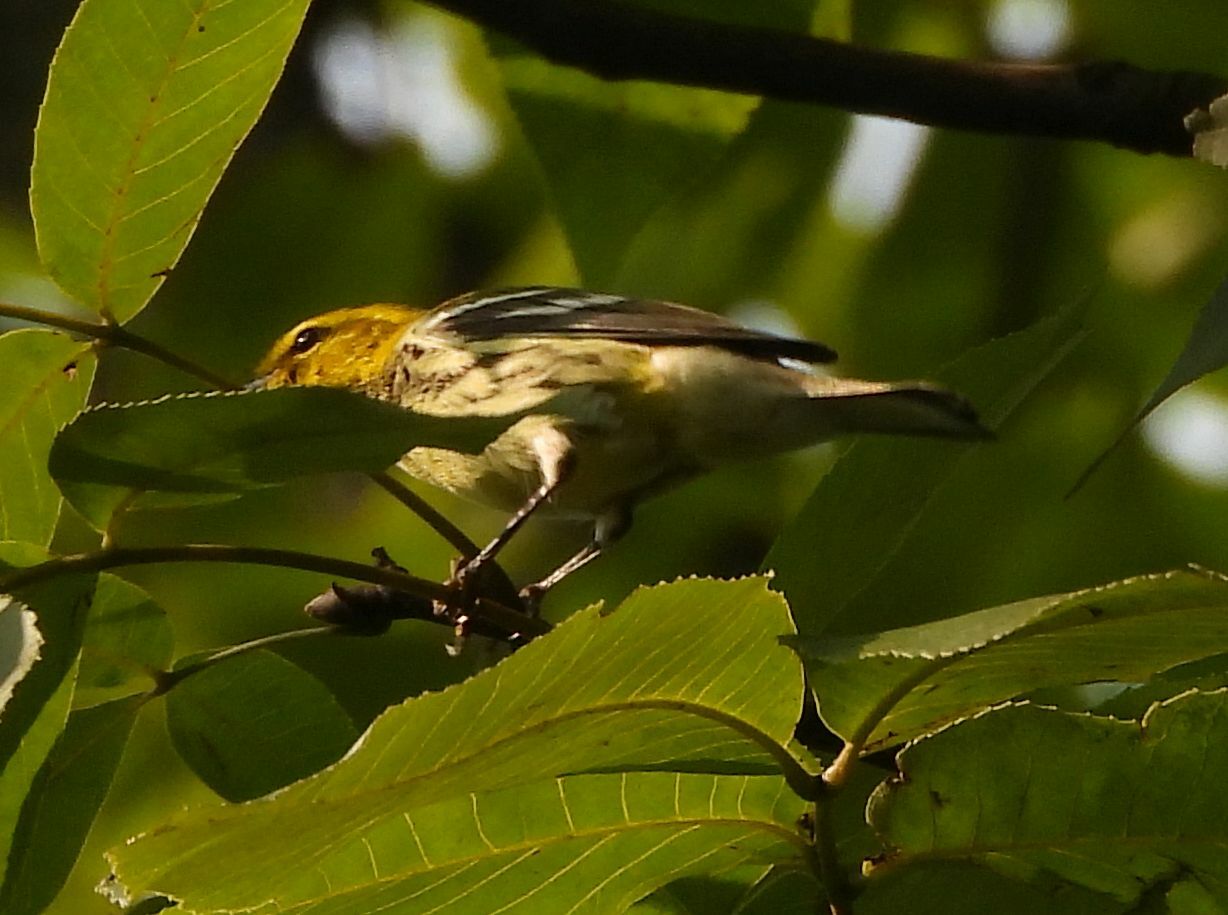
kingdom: Animalia
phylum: Chordata
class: Aves
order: Passeriformes
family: Parulidae
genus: Setophaga
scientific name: Setophaga virens
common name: Black-throated green warbler
